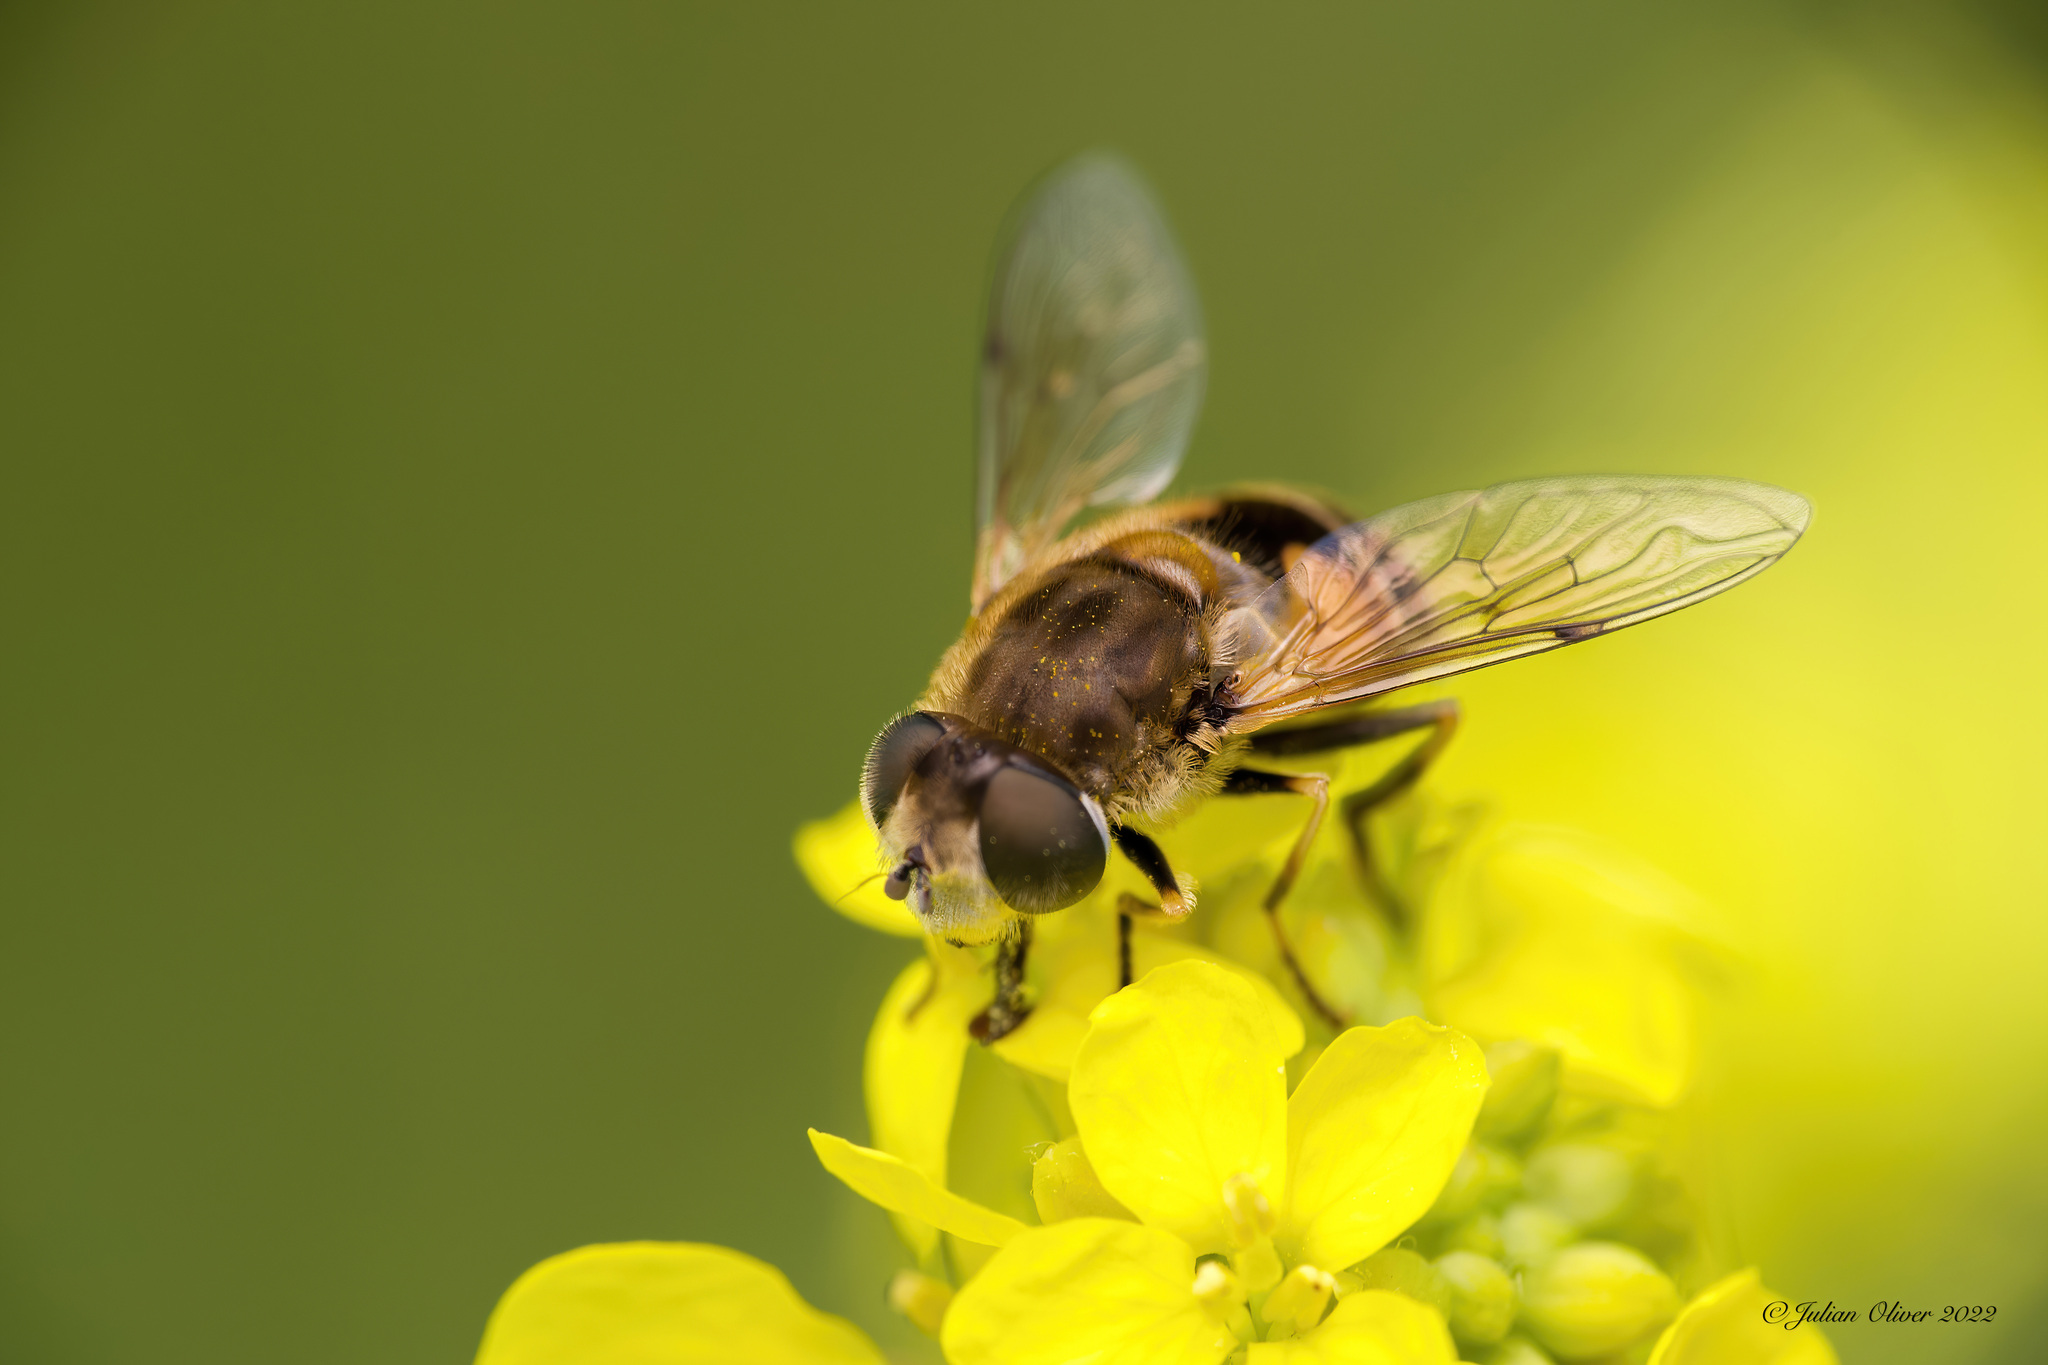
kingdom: Animalia
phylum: Arthropoda
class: Insecta
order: Diptera
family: Syrphidae
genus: Eristalis
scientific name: Eristalis arbustorum
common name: Hover fly
